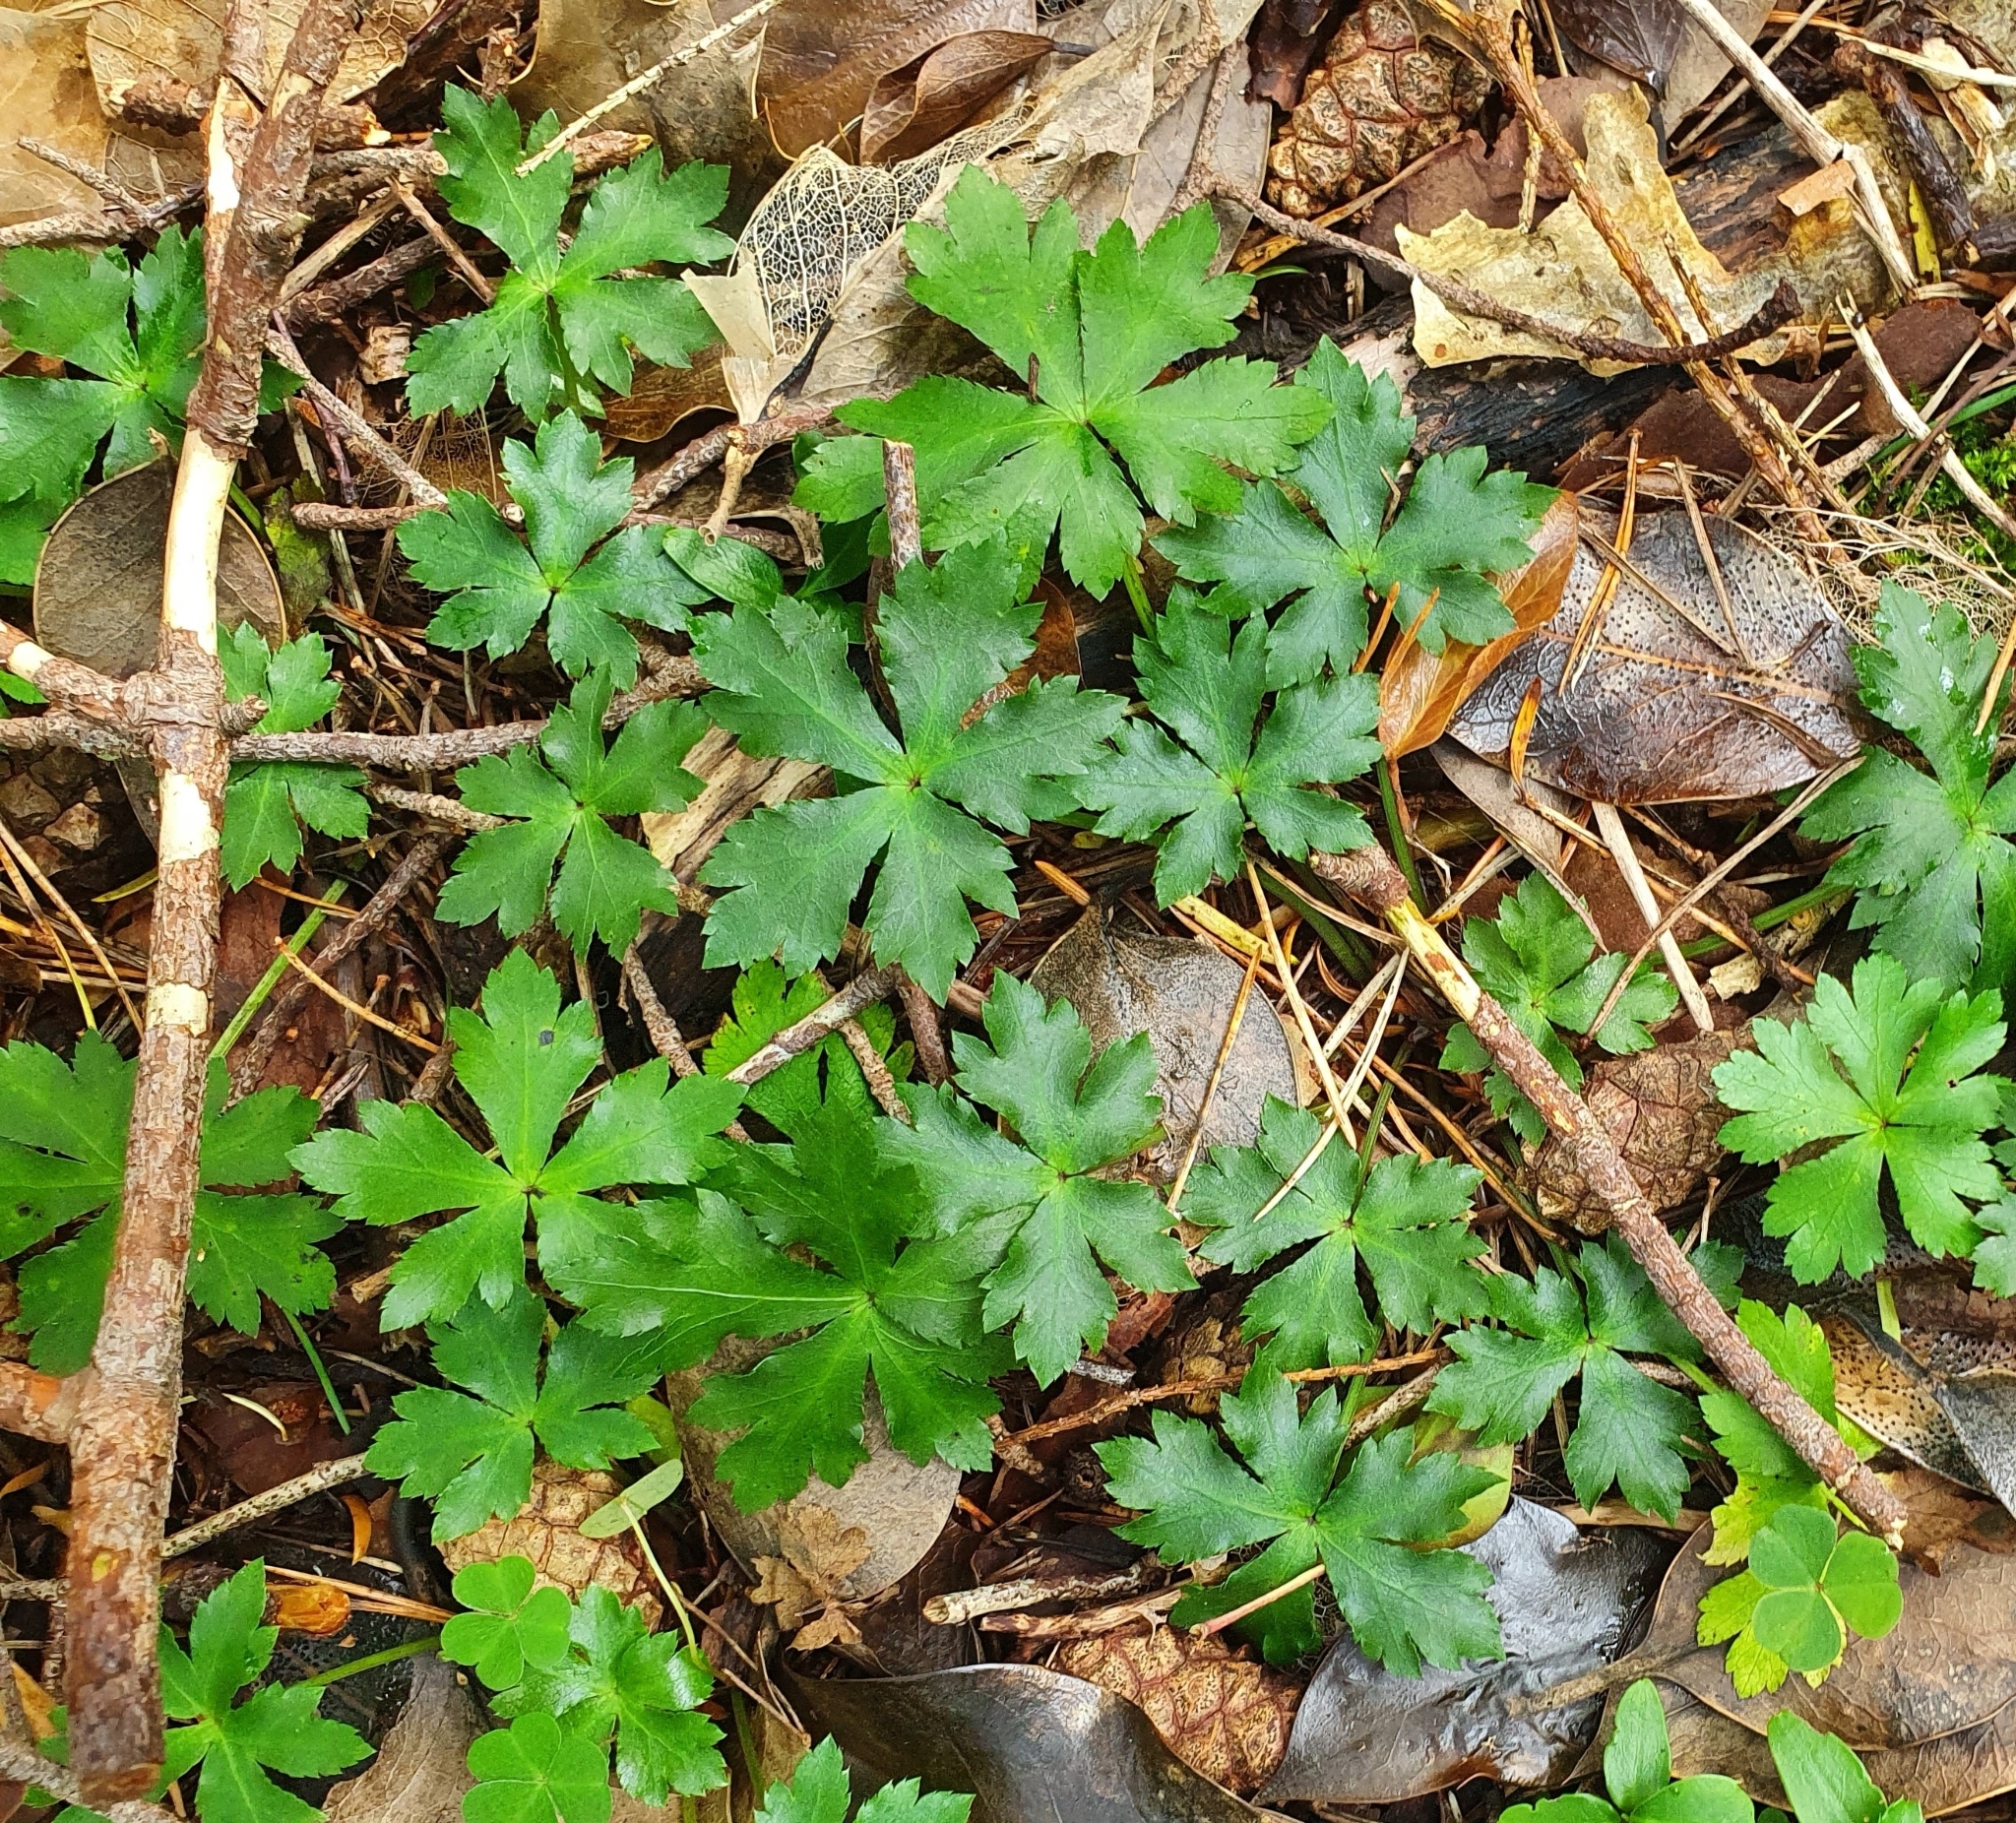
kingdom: Plantae
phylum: Tracheophyta
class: Magnoliopsida
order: Apiales
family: Apiaceae
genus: Sanicula
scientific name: Sanicula europaea
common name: Sanicle
